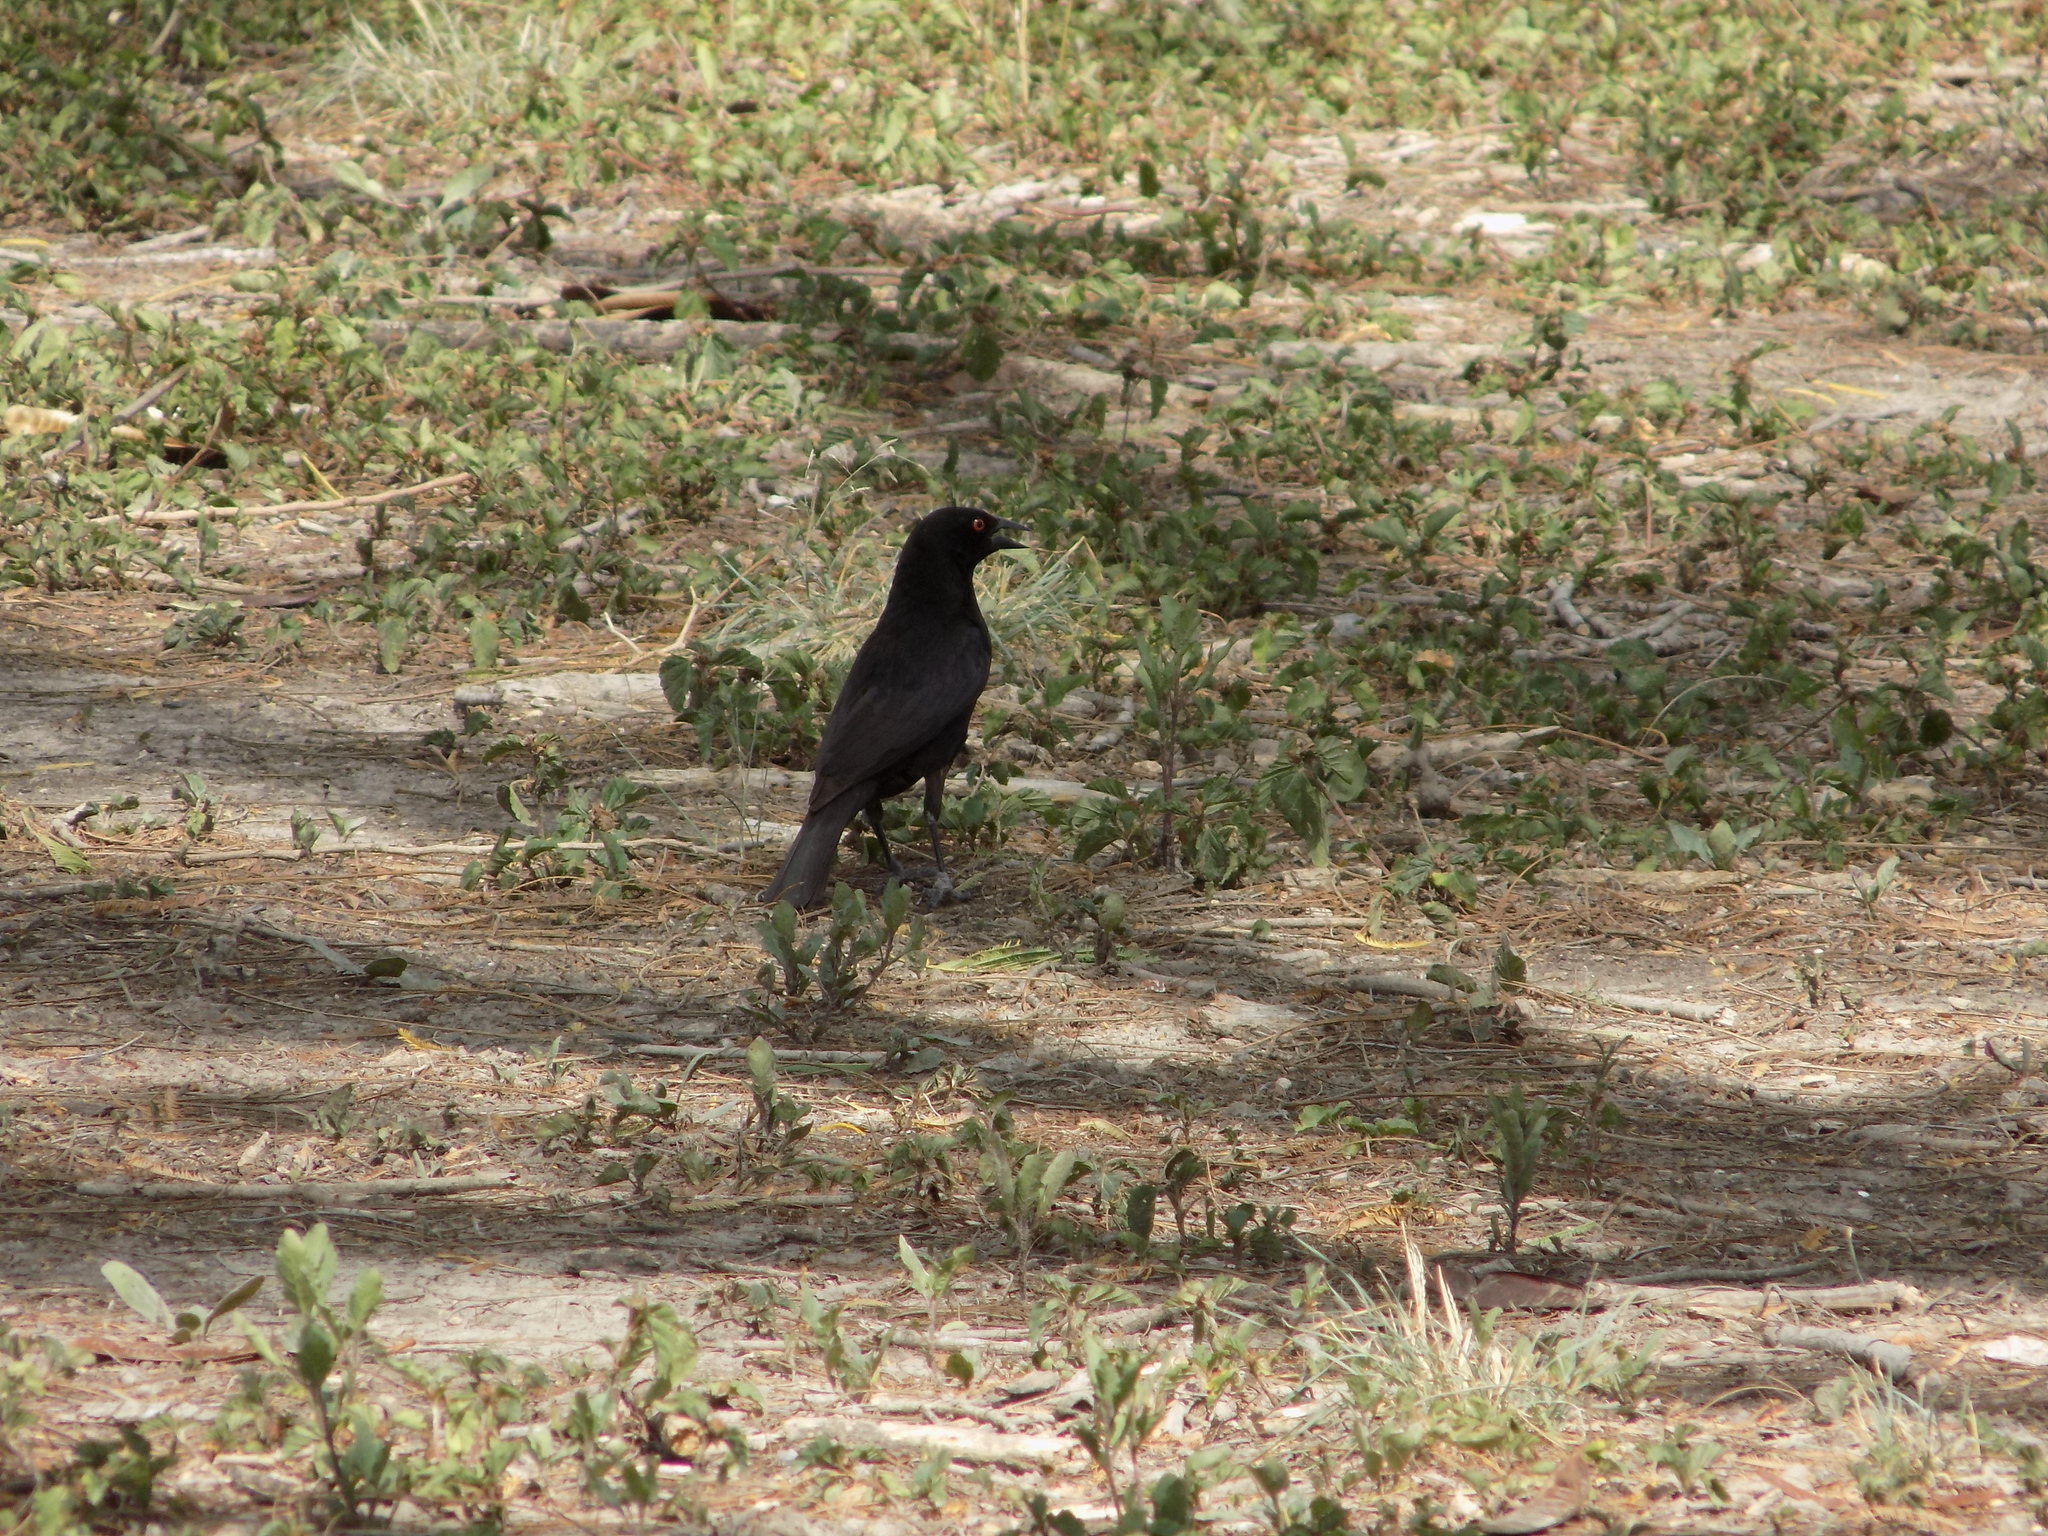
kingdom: Animalia
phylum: Chordata
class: Aves
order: Passeriformes
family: Icteridae
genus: Molothrus
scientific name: Molothrus aeneus
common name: Bronzed cowbird
